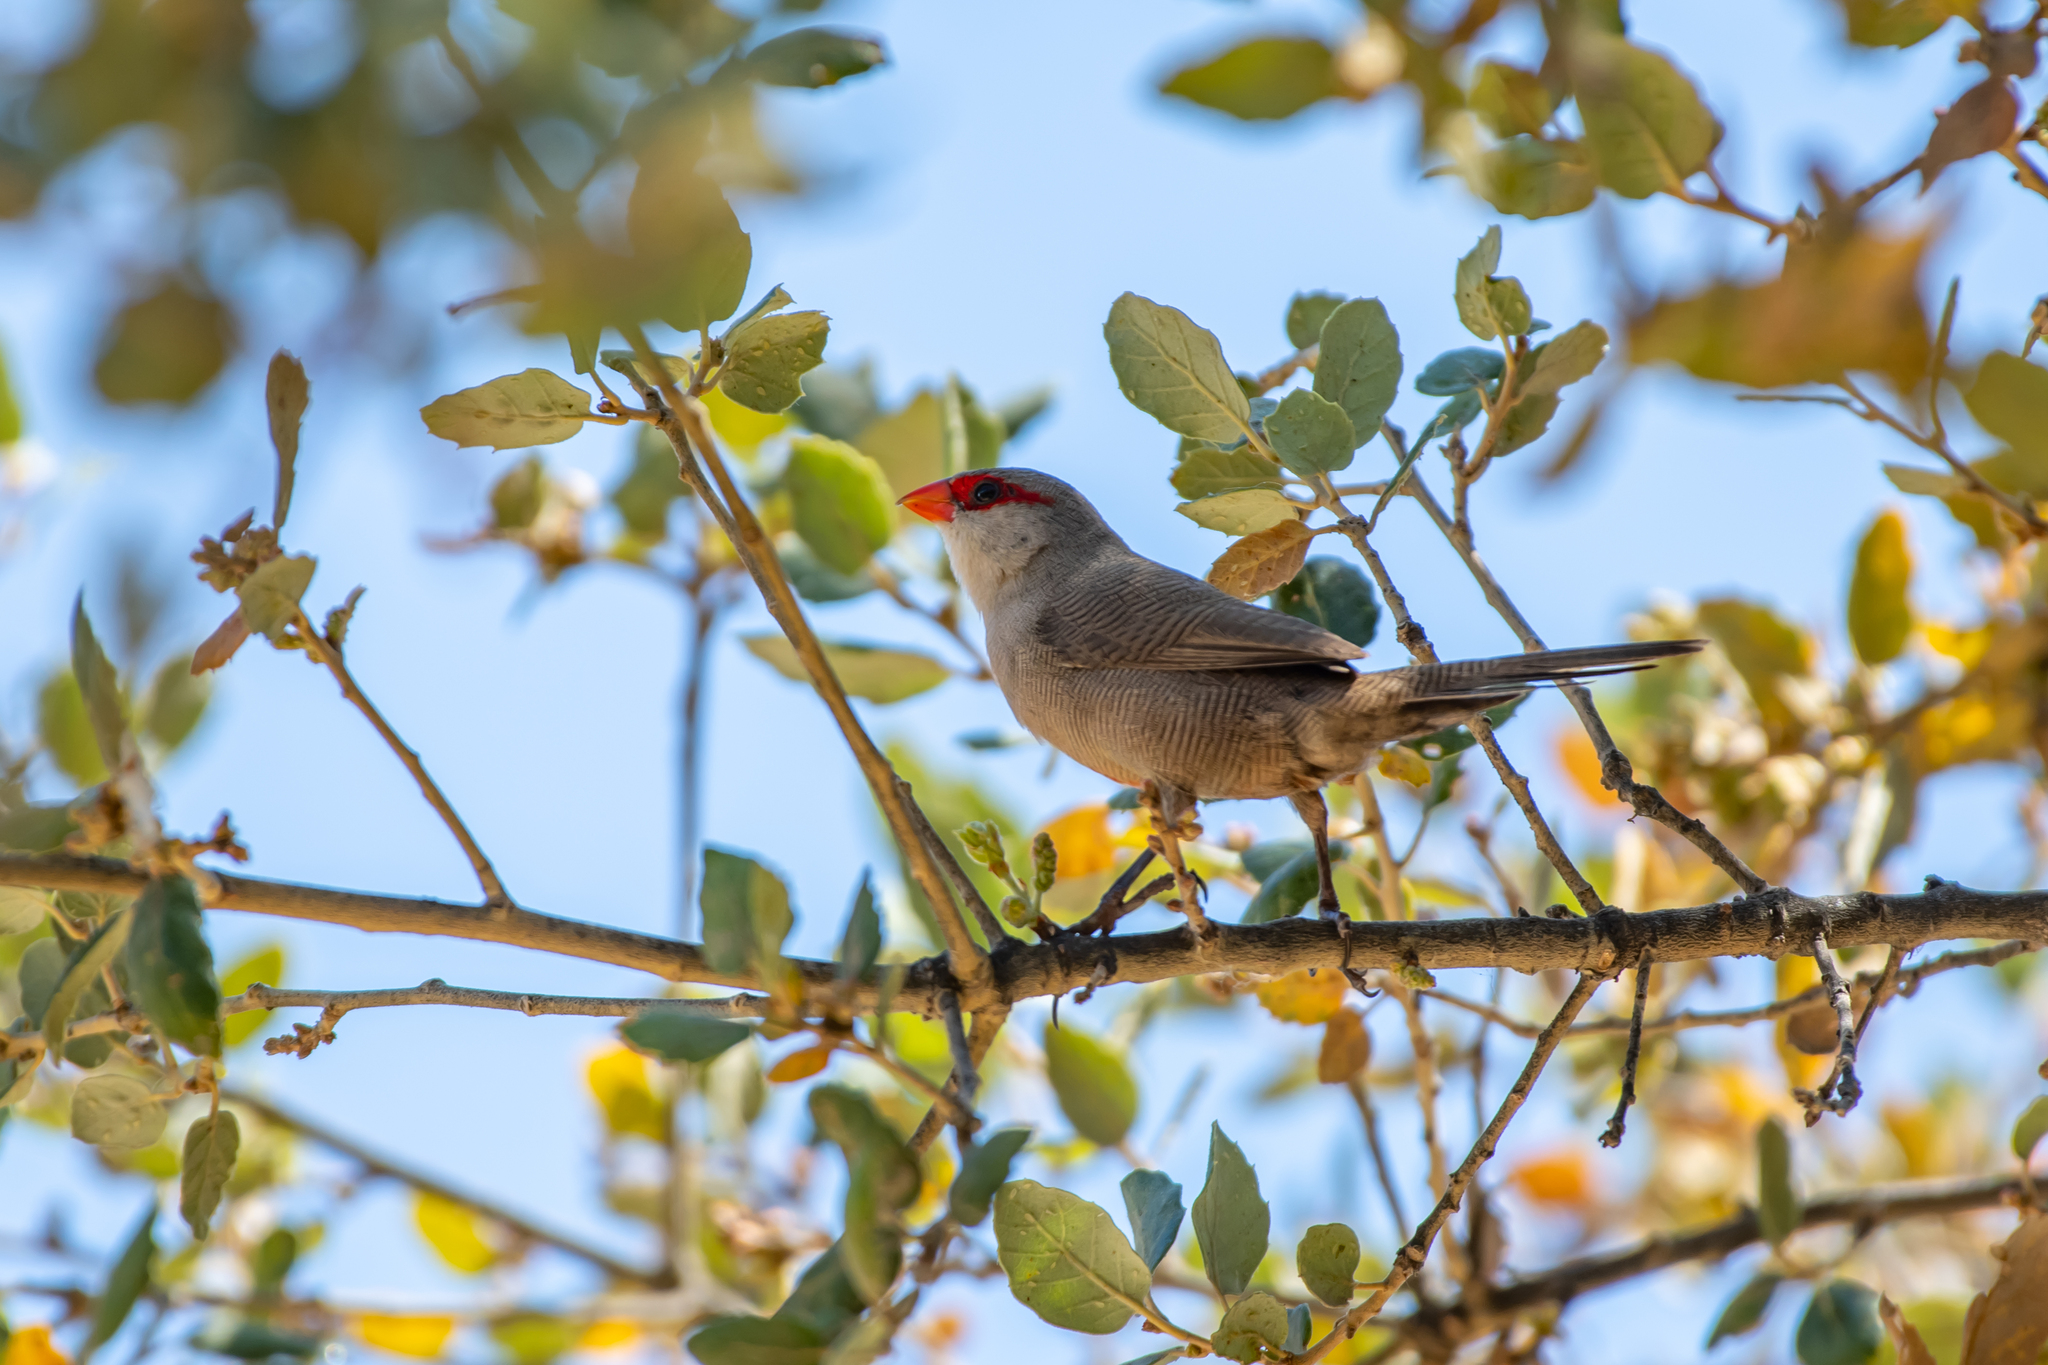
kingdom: Animalia
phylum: Chordata
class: Aves
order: Passeriformes
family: Estrildidae
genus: Estrilda
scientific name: Estrilda astrild
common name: Common waxbill
